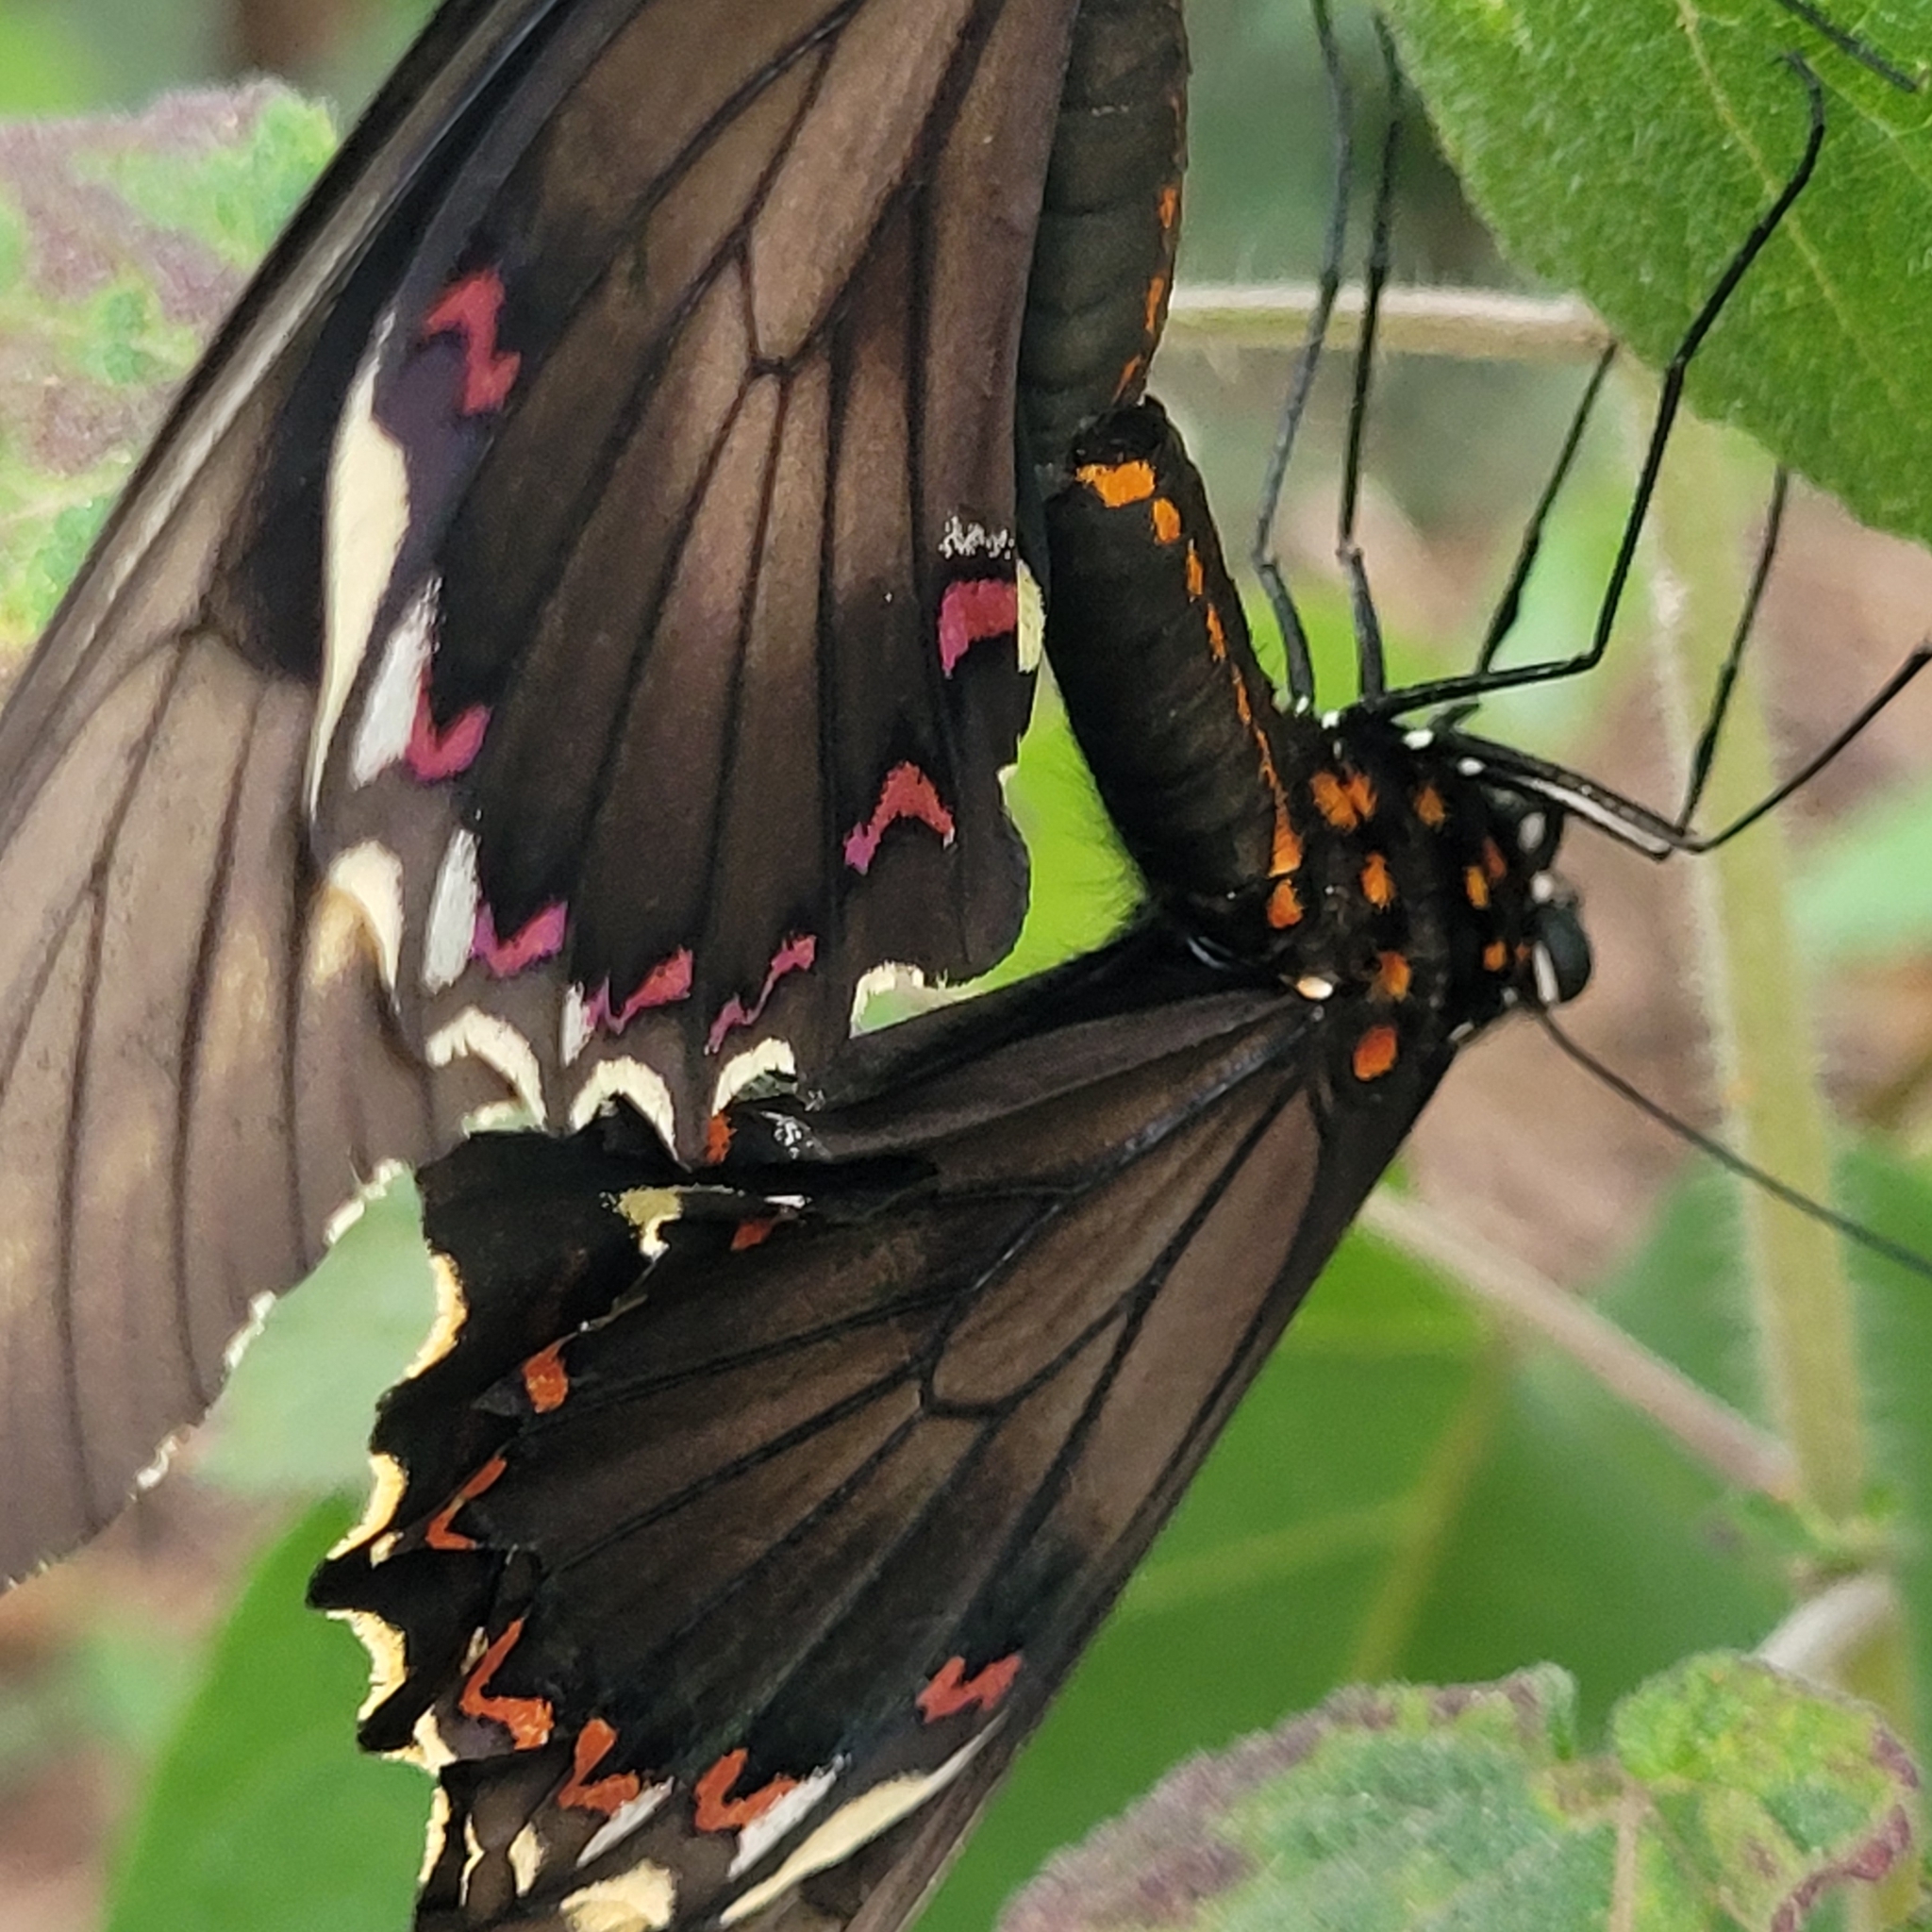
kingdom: Animalia
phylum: Arthropoda
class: Insecta
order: Lepidoptera
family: Papilionidae
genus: Battus
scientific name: Battus polydamas
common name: Polydamas swallowtail
